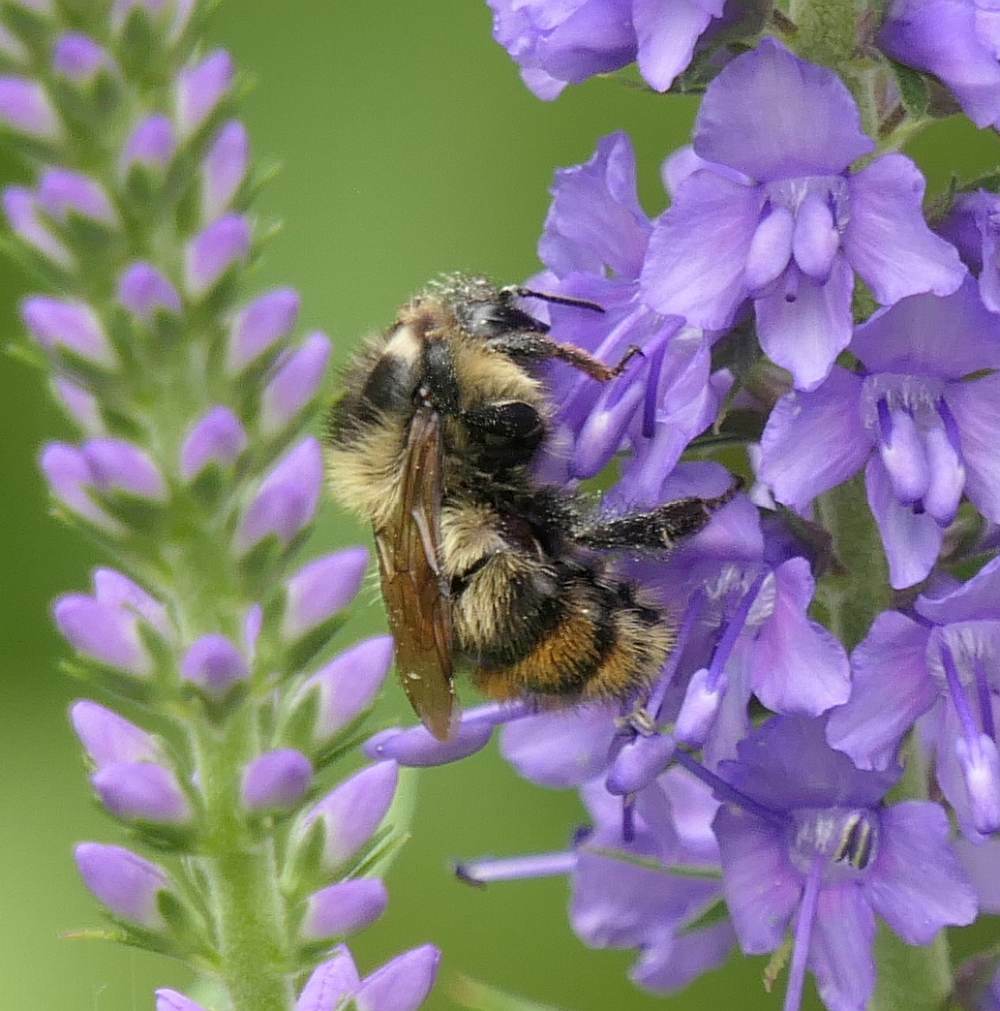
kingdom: Animalia
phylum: Arthropoda
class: Insecta
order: Hymenoptera
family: Apidae
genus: Bombus
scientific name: Bombus rufocinctus
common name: Red-belted bumble bee
